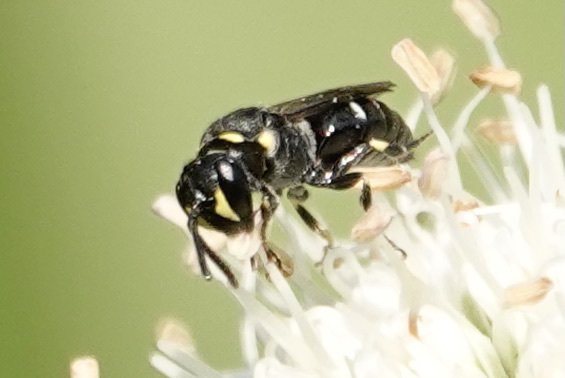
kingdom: Animalia
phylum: Arthropoda
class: Insecta
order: Hymenoptera
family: Colletidae
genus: Hylaeus
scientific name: Hylaeus modestus
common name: Yellow-faced bee
